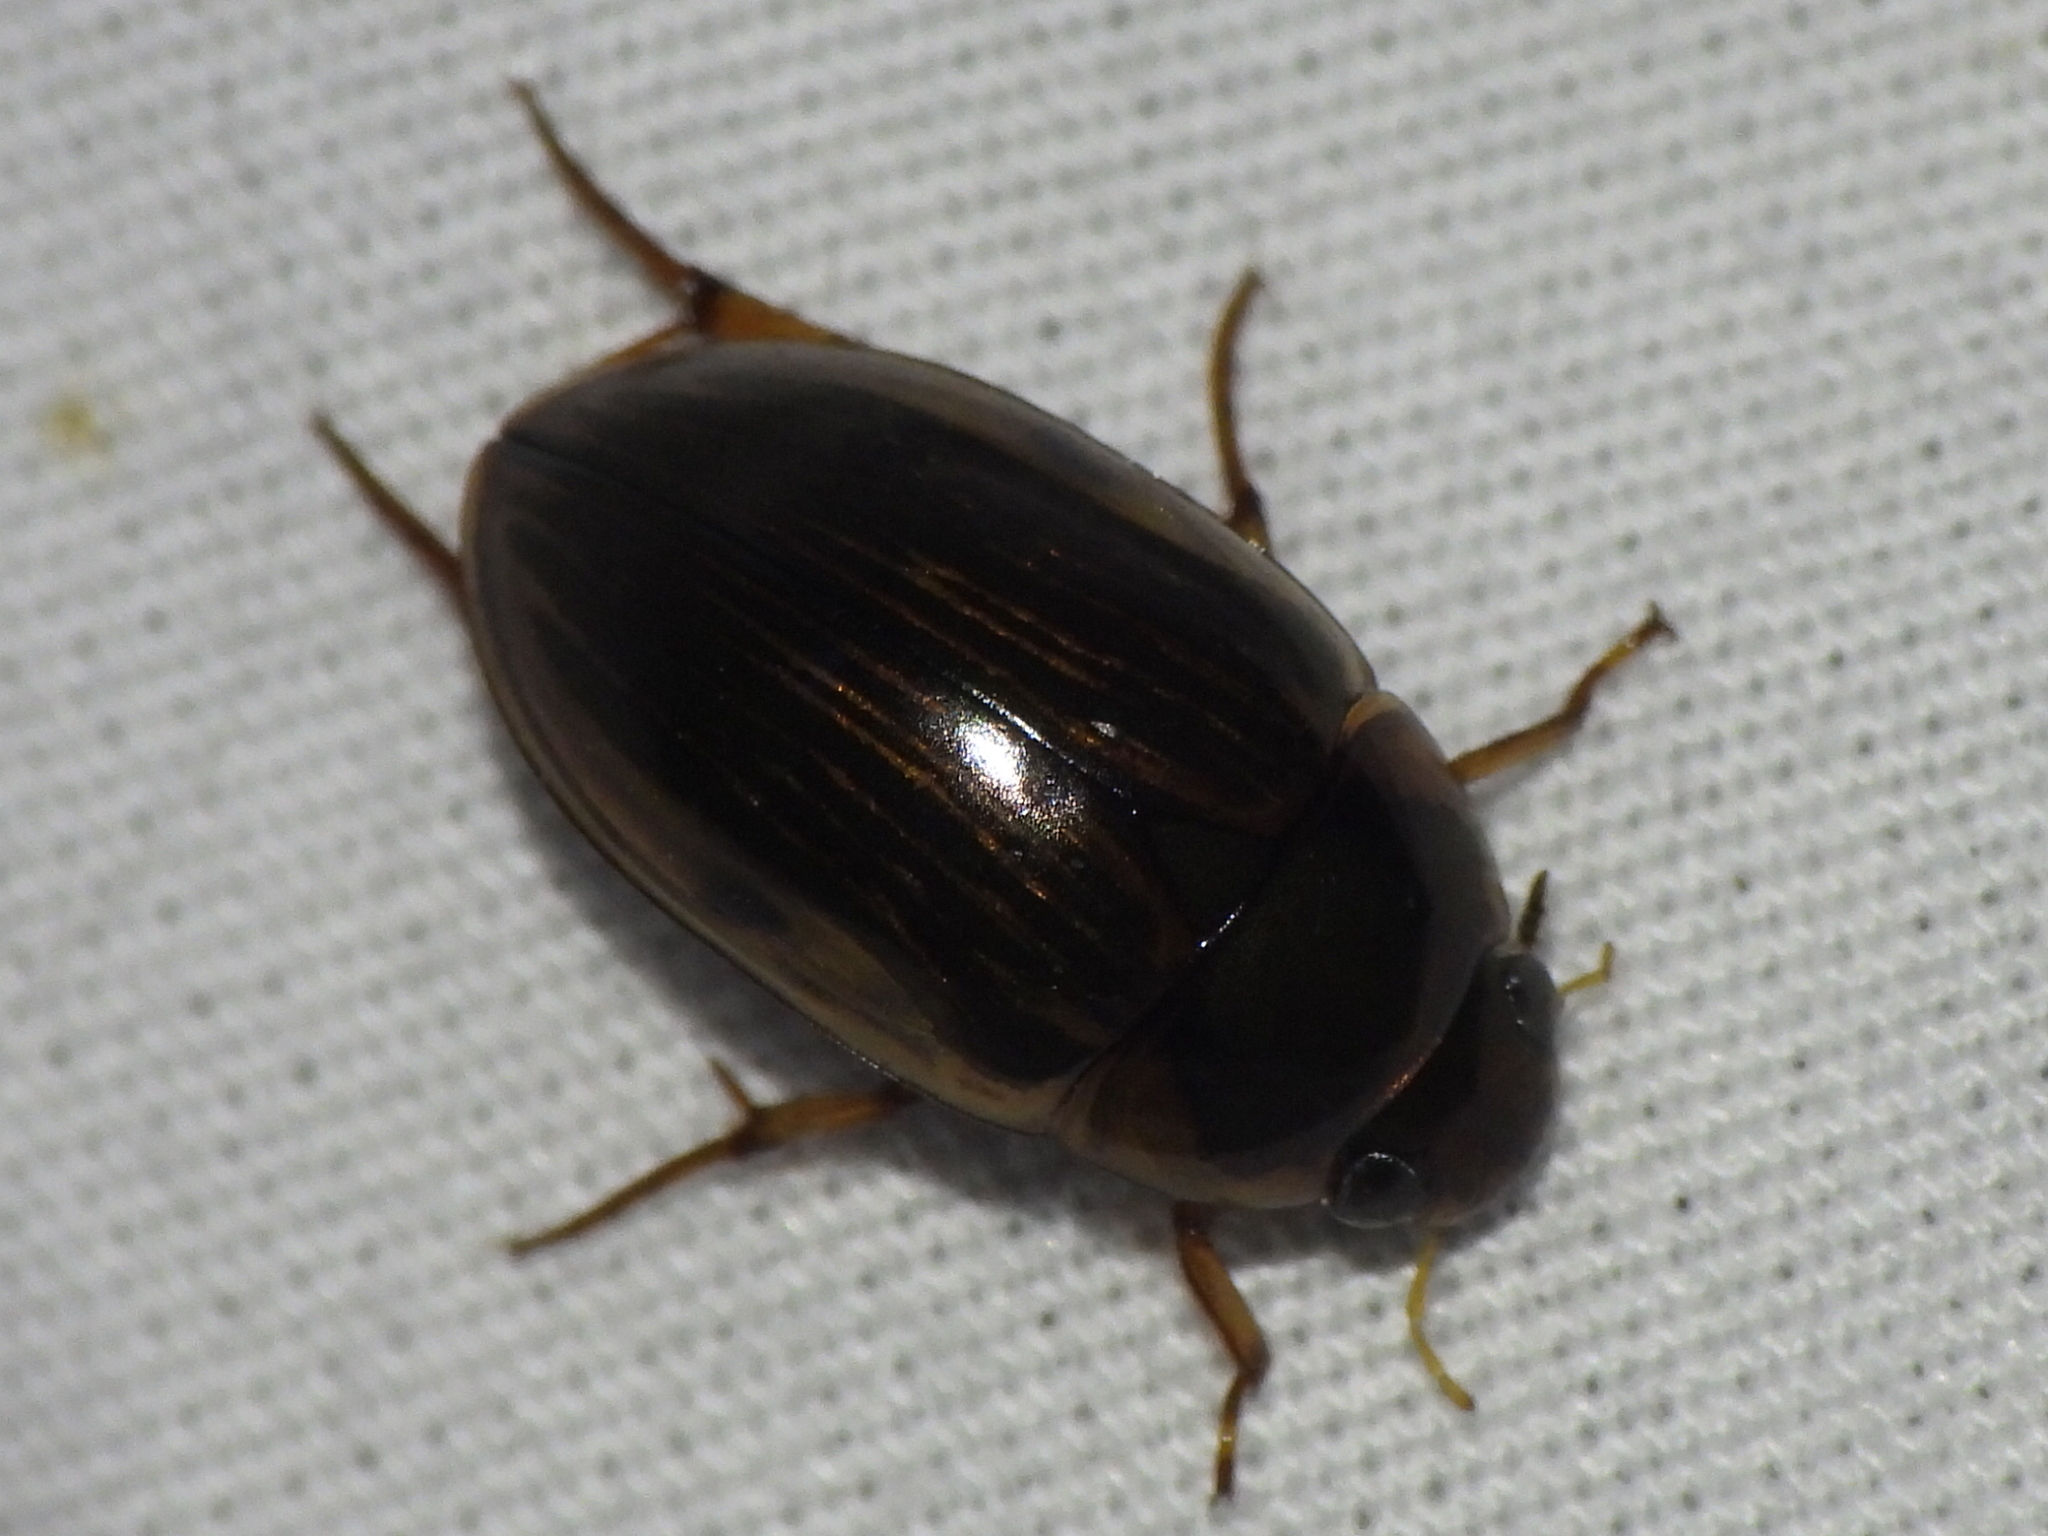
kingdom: Animalia
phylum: Arthropoda
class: Insecta
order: Coleoptera
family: Hydrophilidae
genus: Tropisternus
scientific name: Tropisternus collaris
